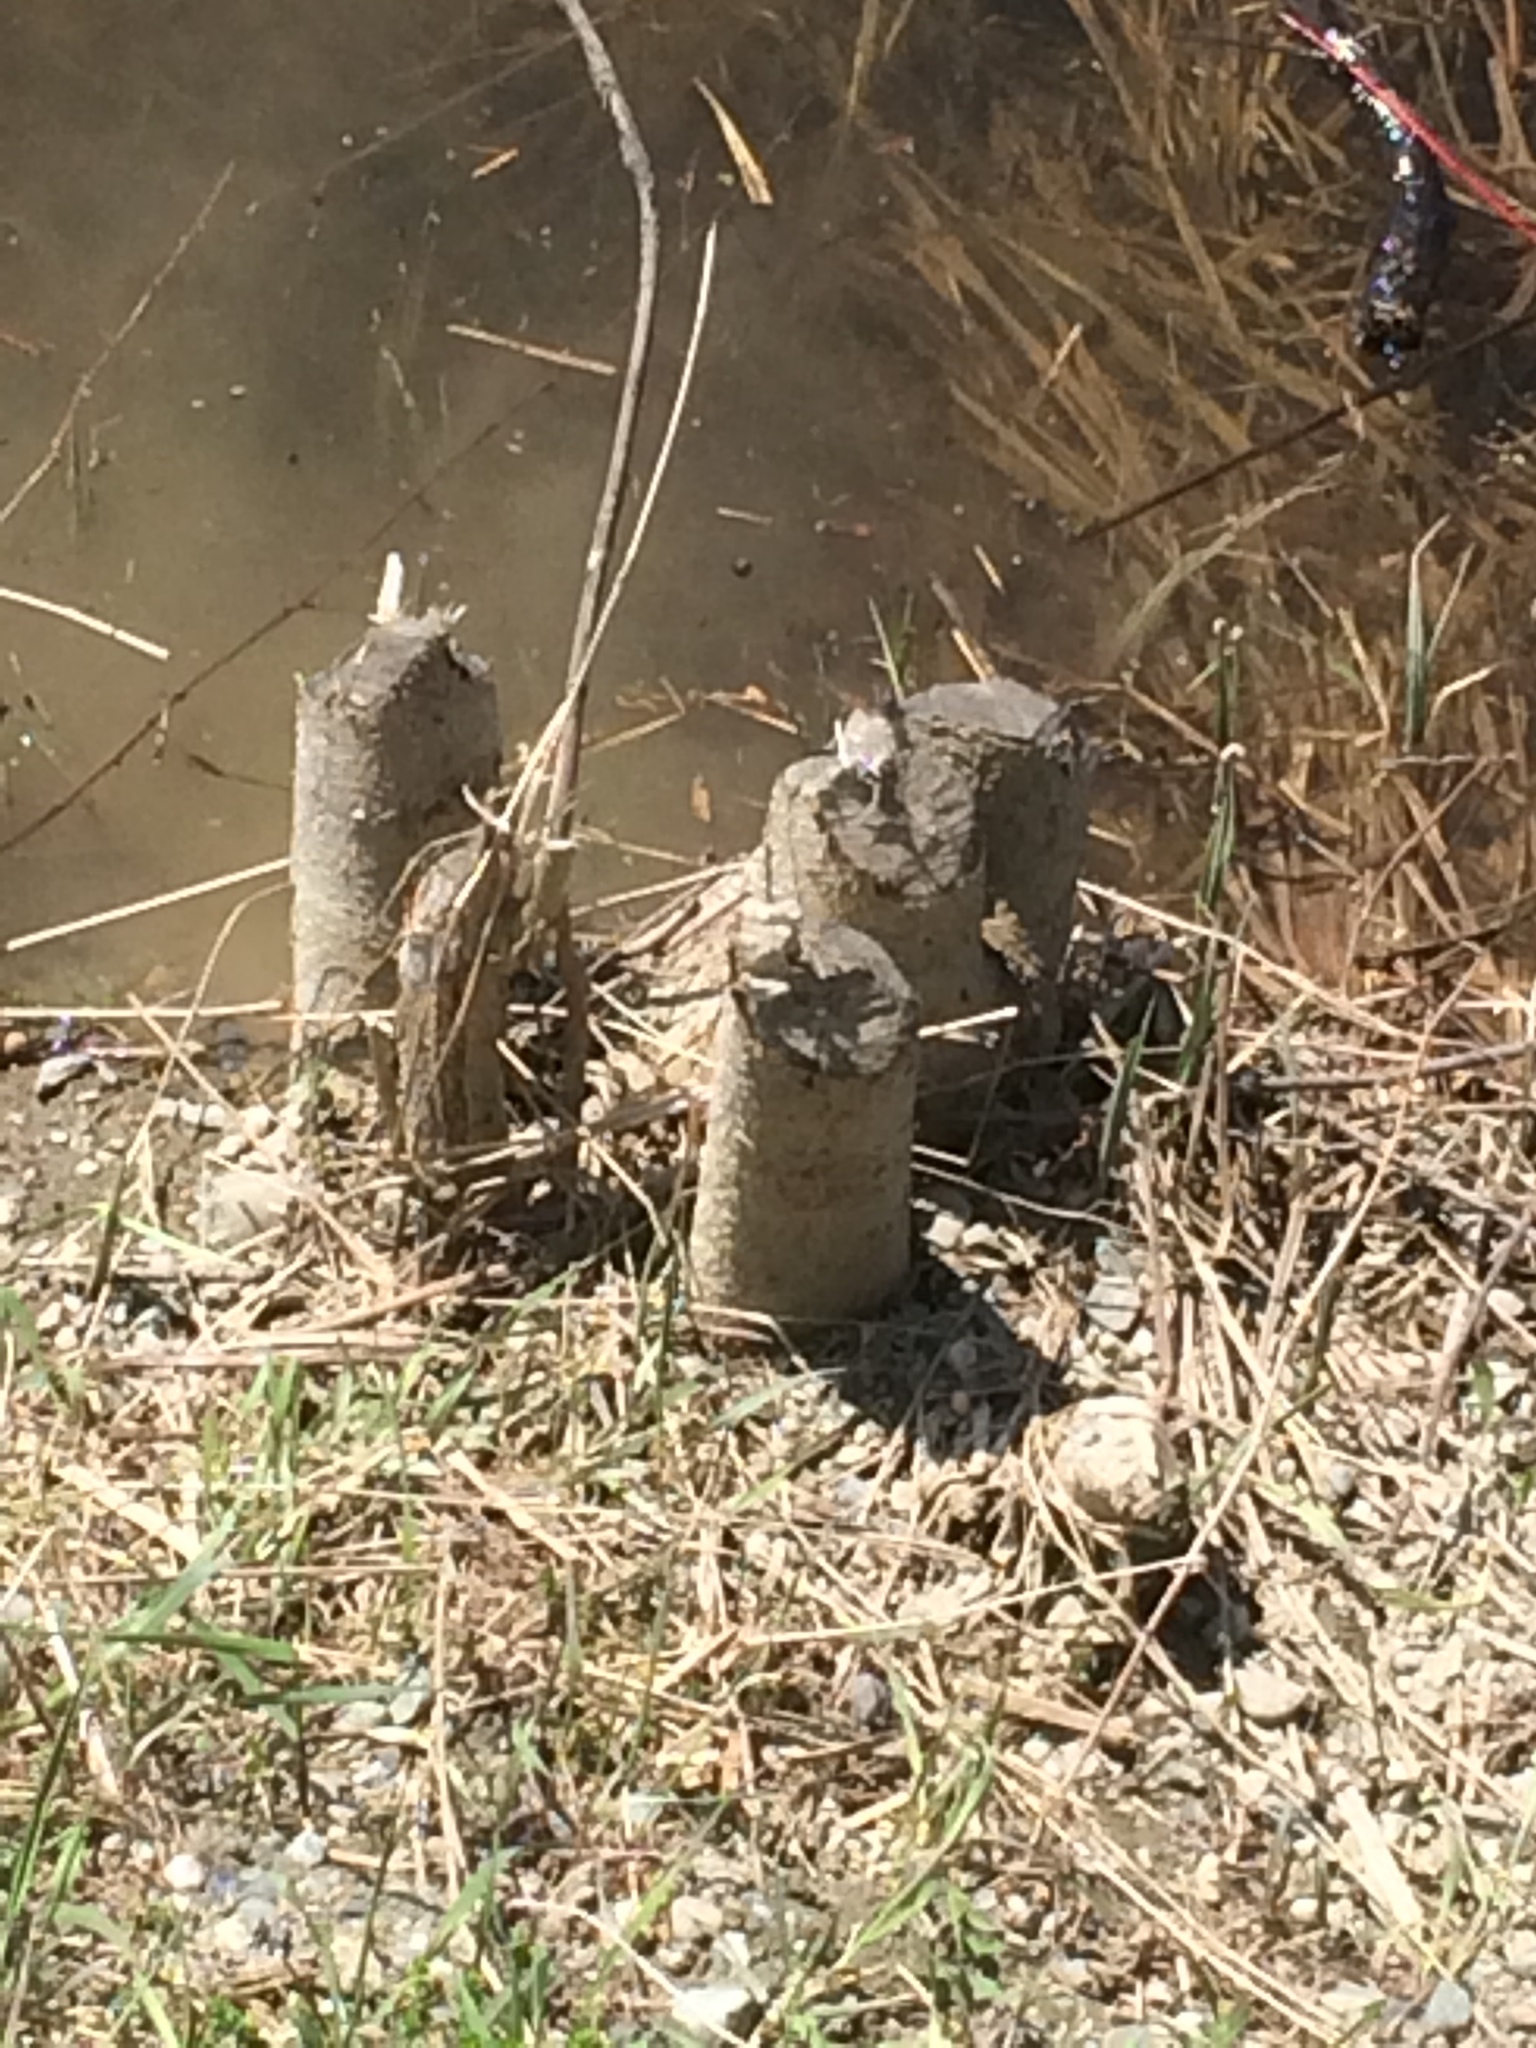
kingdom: Animalia
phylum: Chordata
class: Mammalia
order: Rodentia
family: Castoridae
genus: Castor
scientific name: Castor canadensis
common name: American beaver
